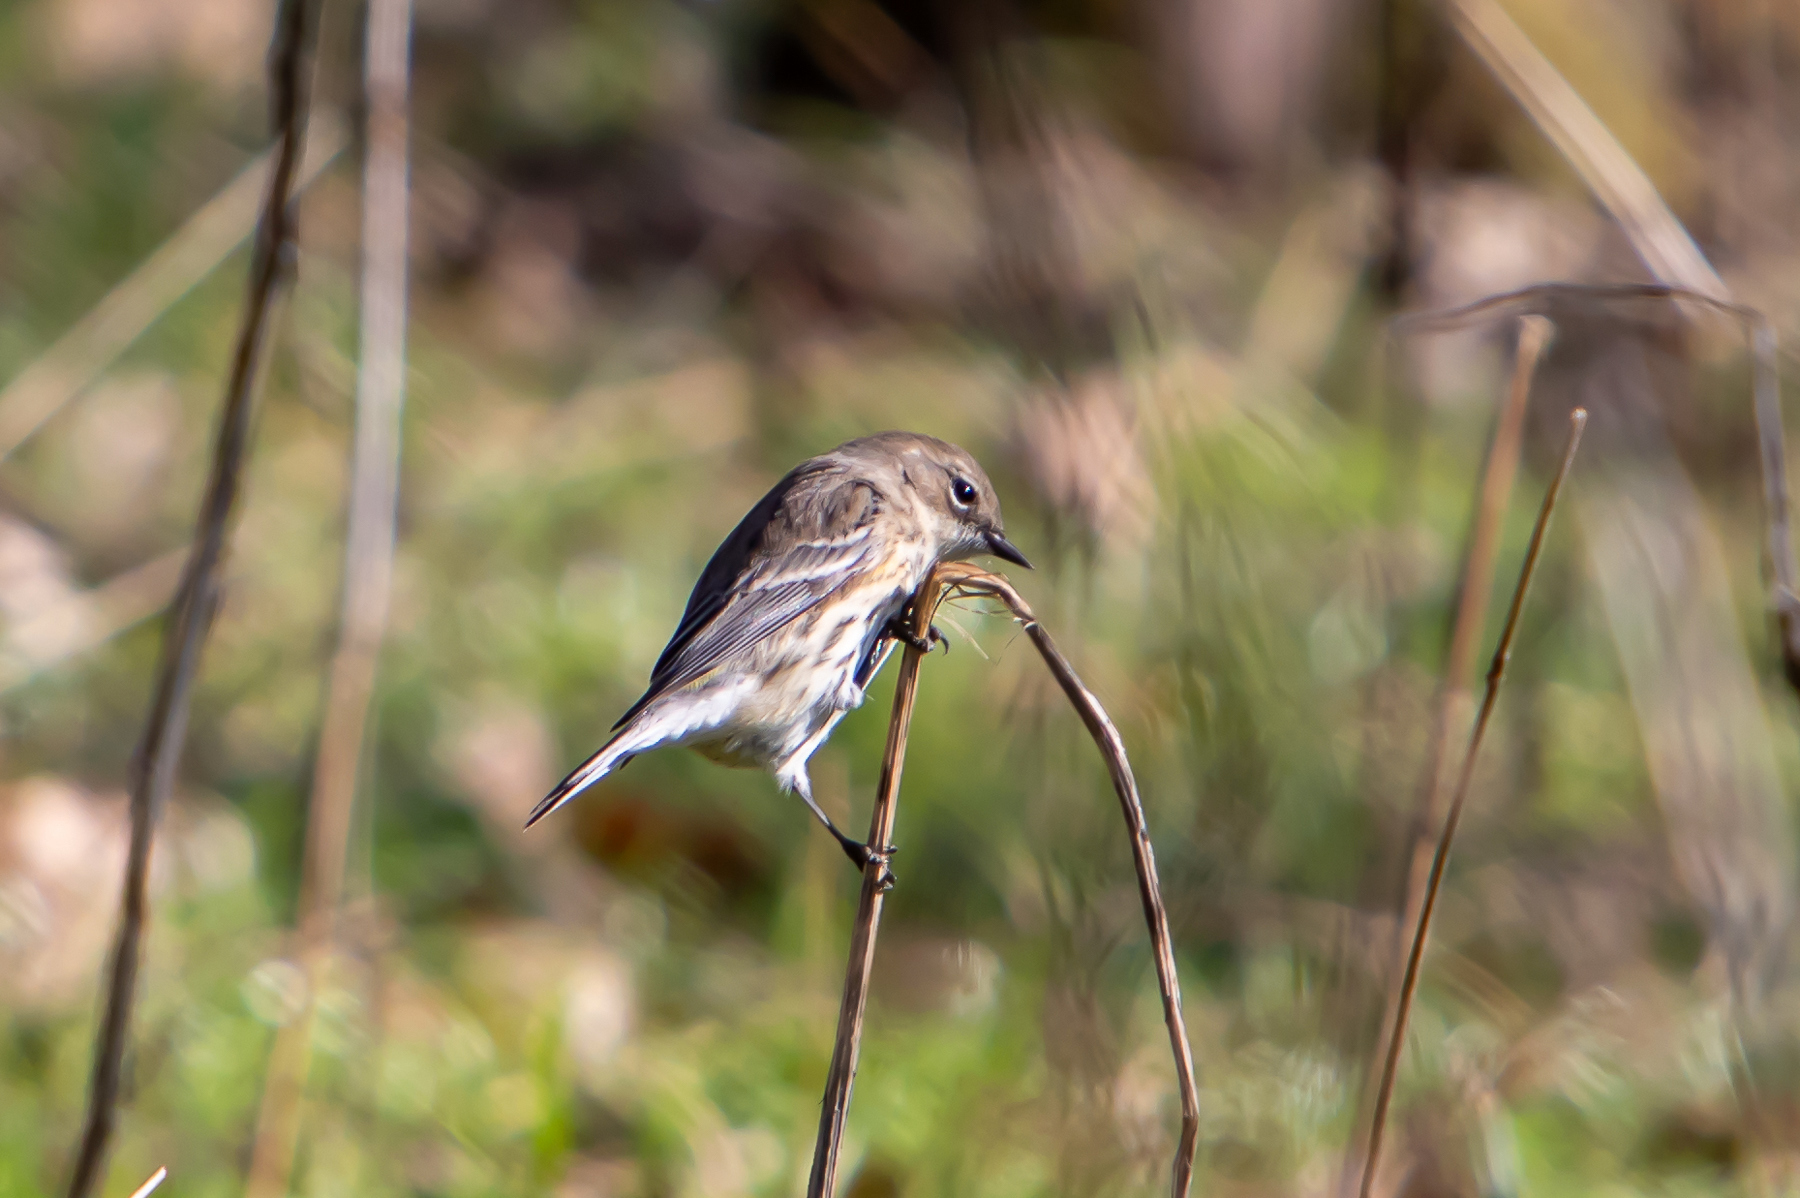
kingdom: Animalia
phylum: Chordata
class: Aves
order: Passeriformes
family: Parulidae
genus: Setophaga
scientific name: Setophaga coronata
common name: Myrtle warbler
